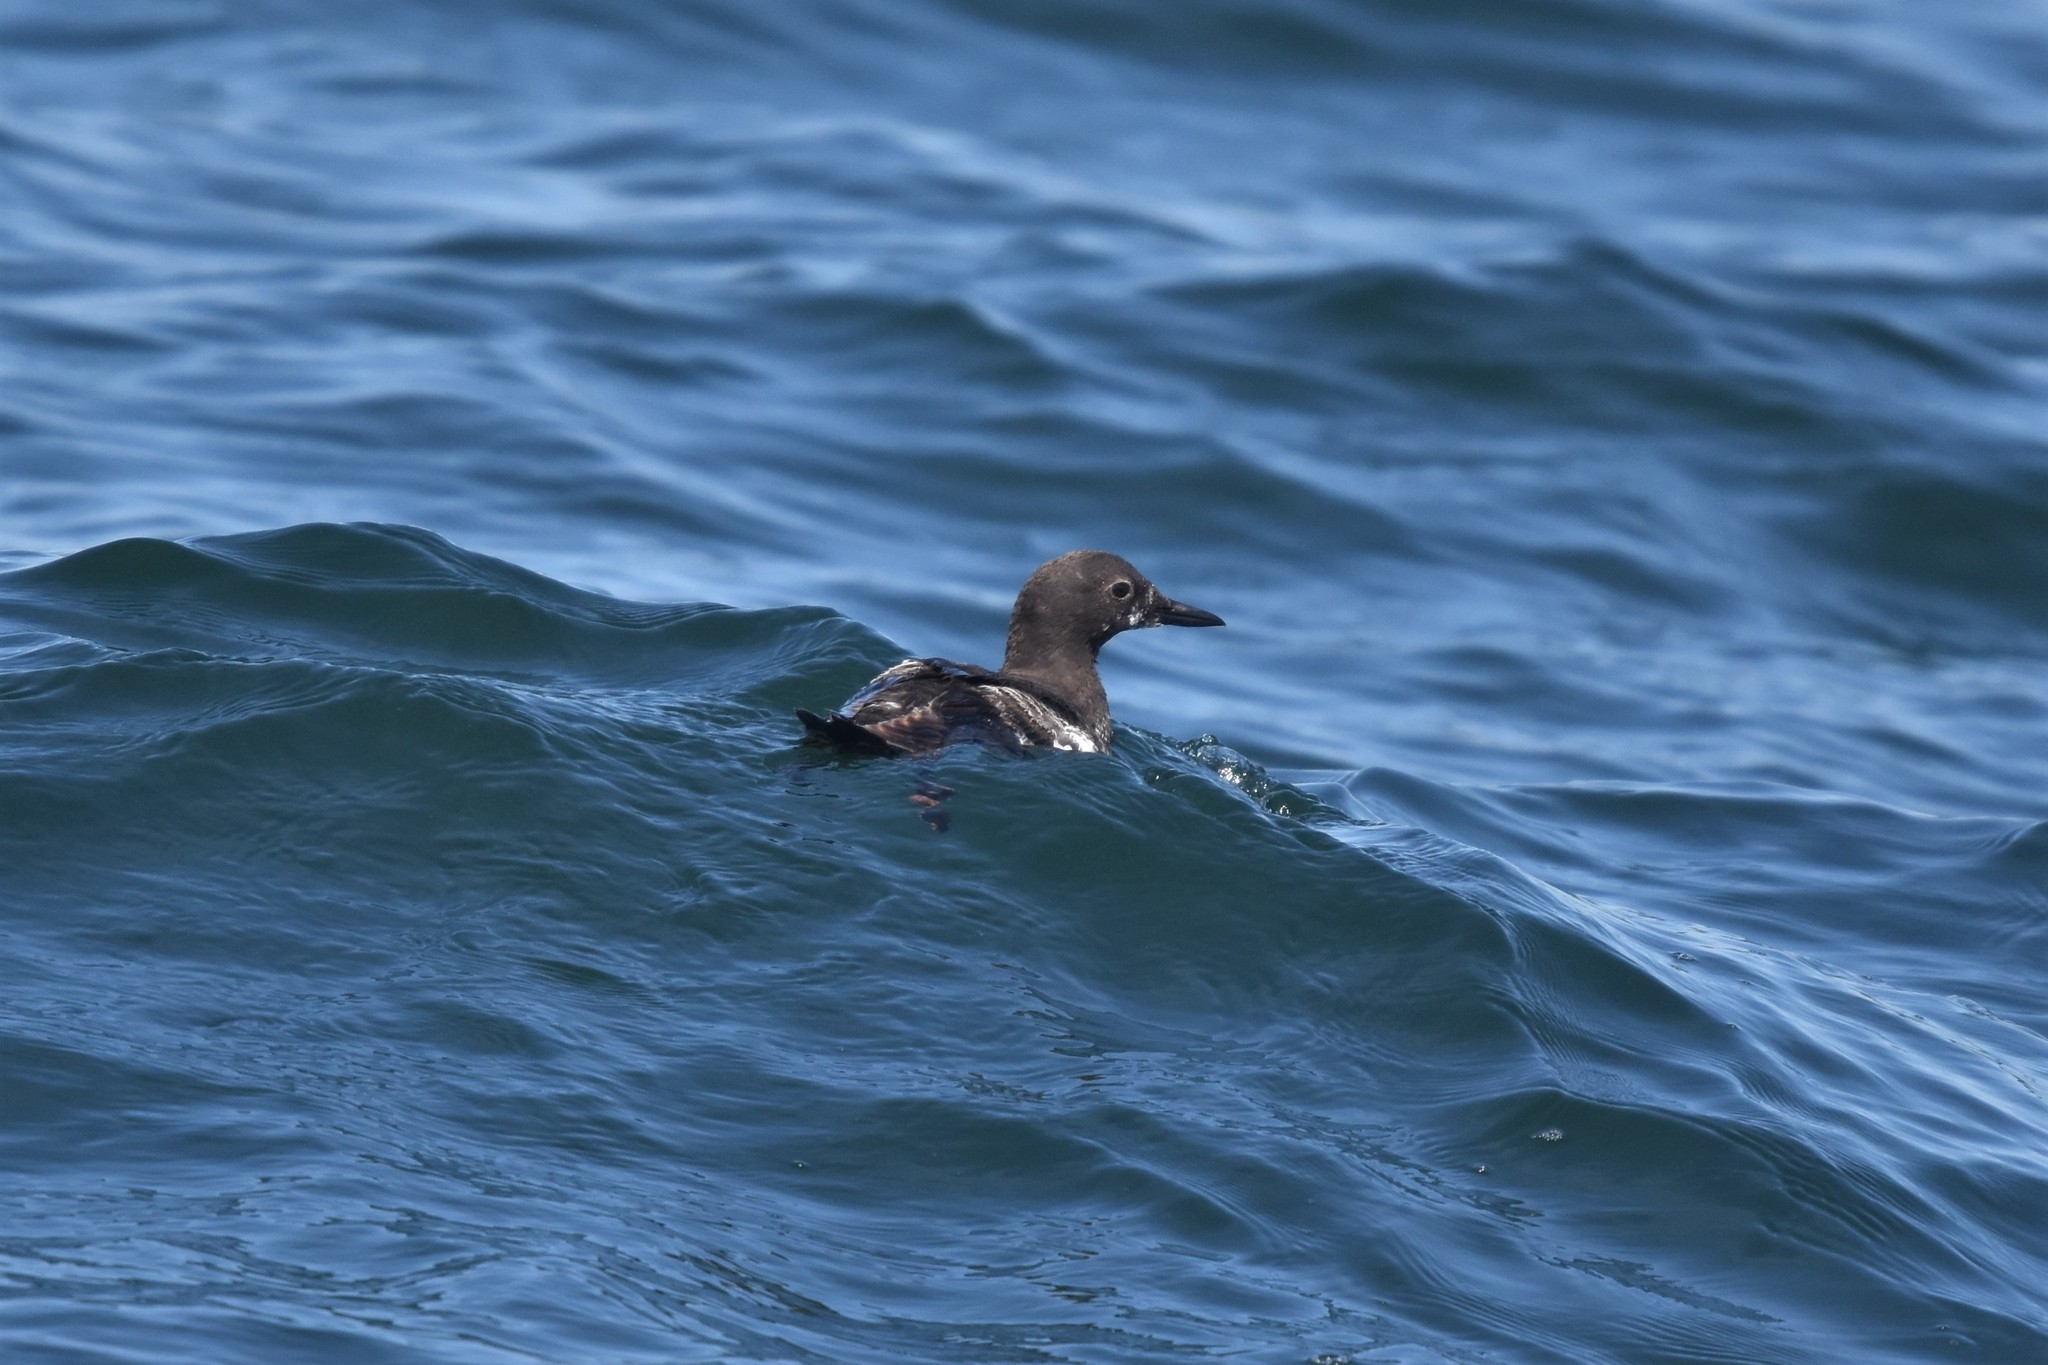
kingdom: Animalia
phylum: Chordata
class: Aves
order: Charadriiformes
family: Alcidae
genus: Cepphus
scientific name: Cepphus columba
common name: Pigeon guillemot
